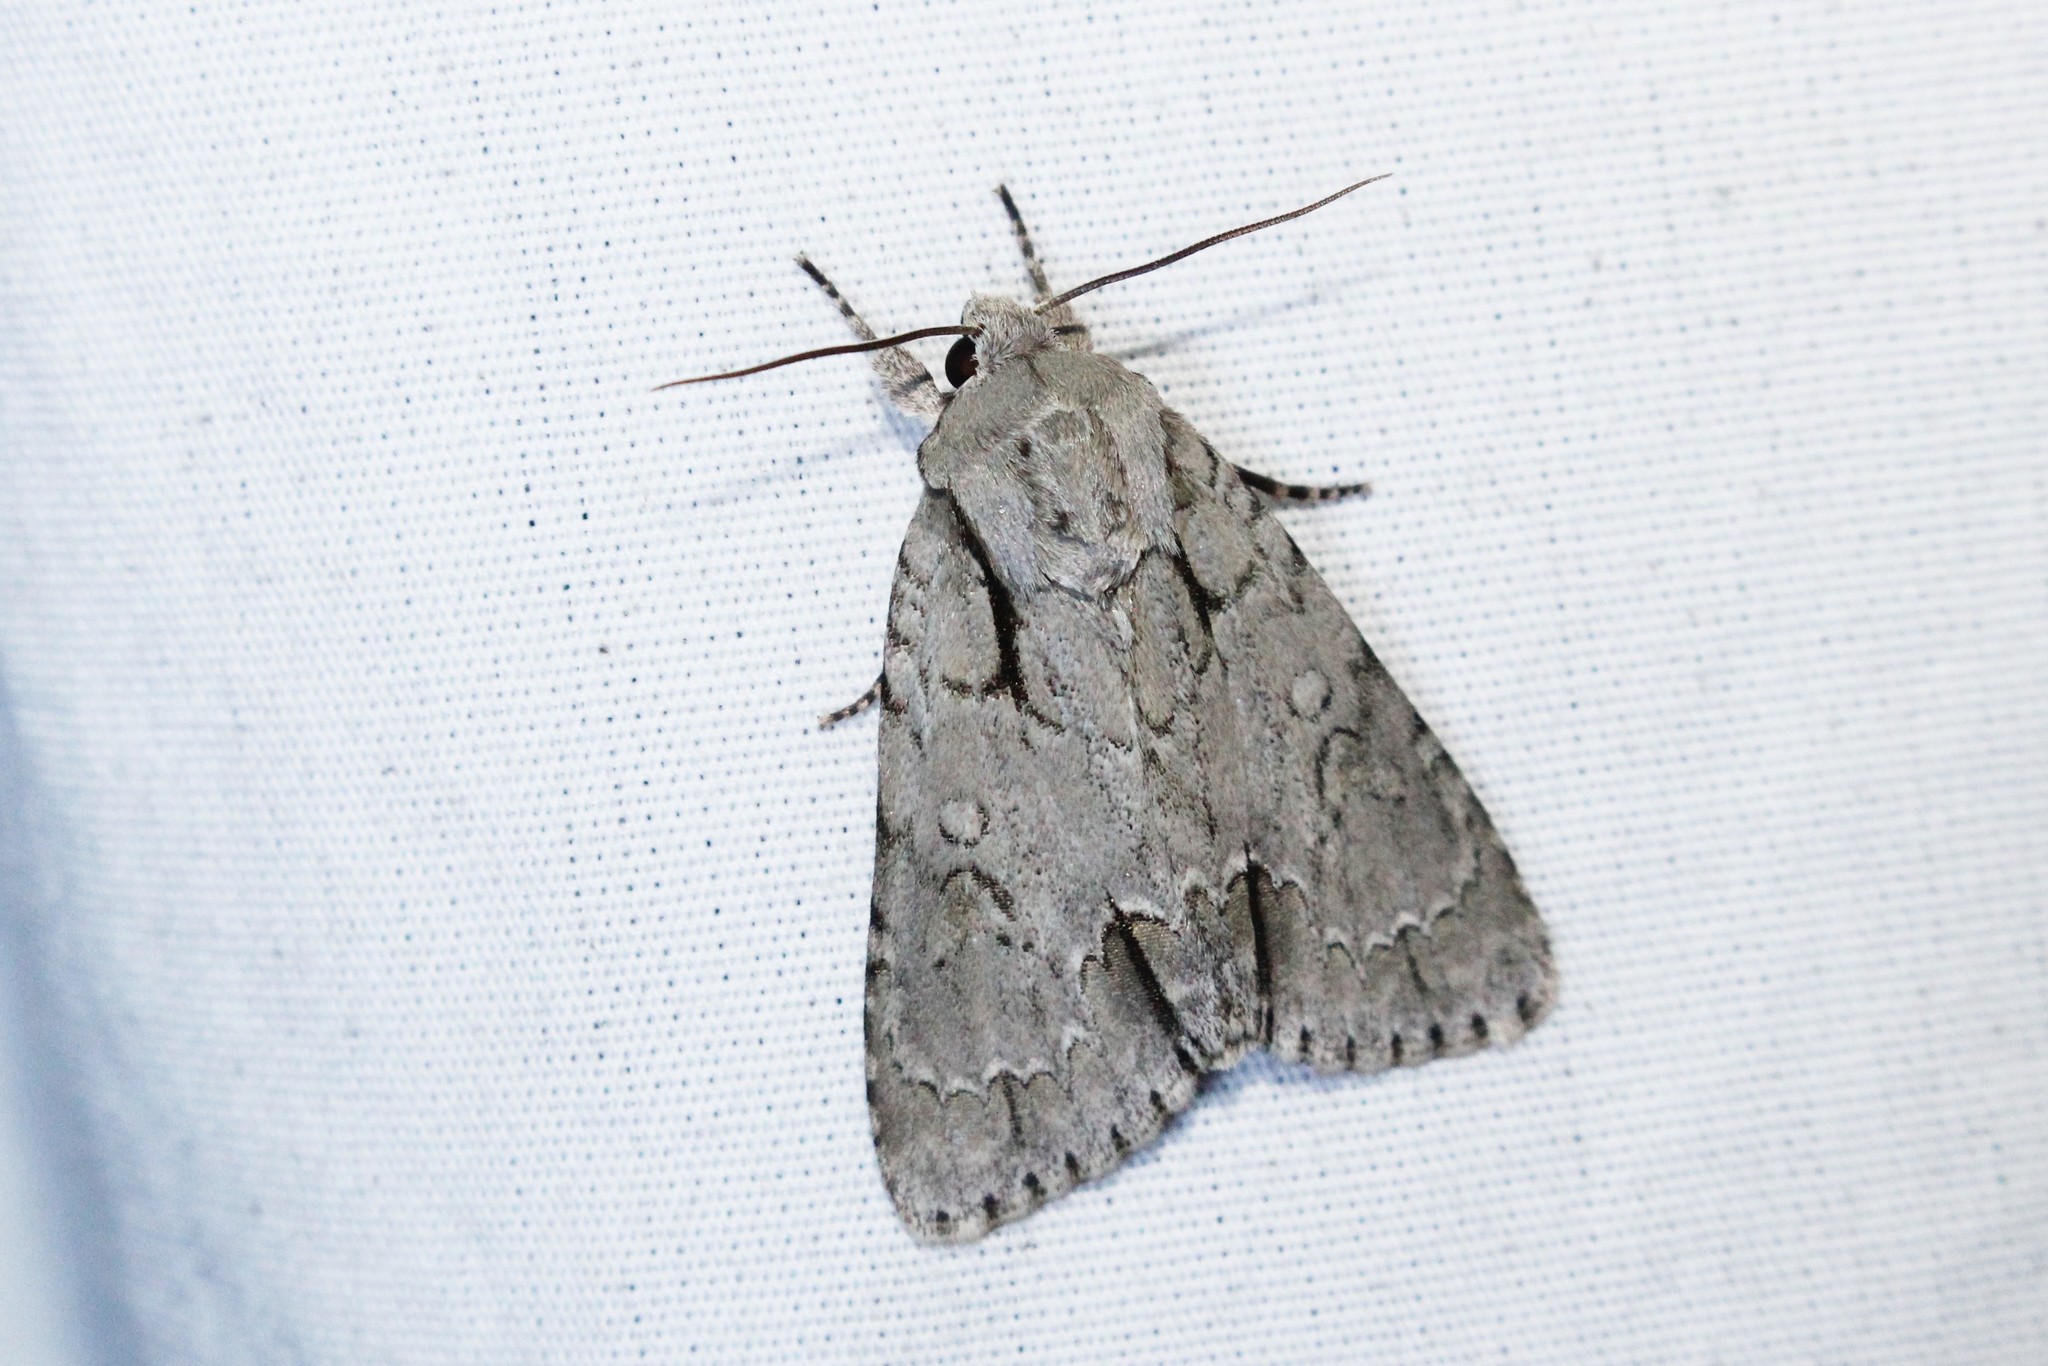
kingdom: Animalia
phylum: Arthropoda
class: Insecta
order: Lepidoptera
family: Noctuidae
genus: Acronicta
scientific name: Acronicta interrupta
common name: Interrupted dagger
